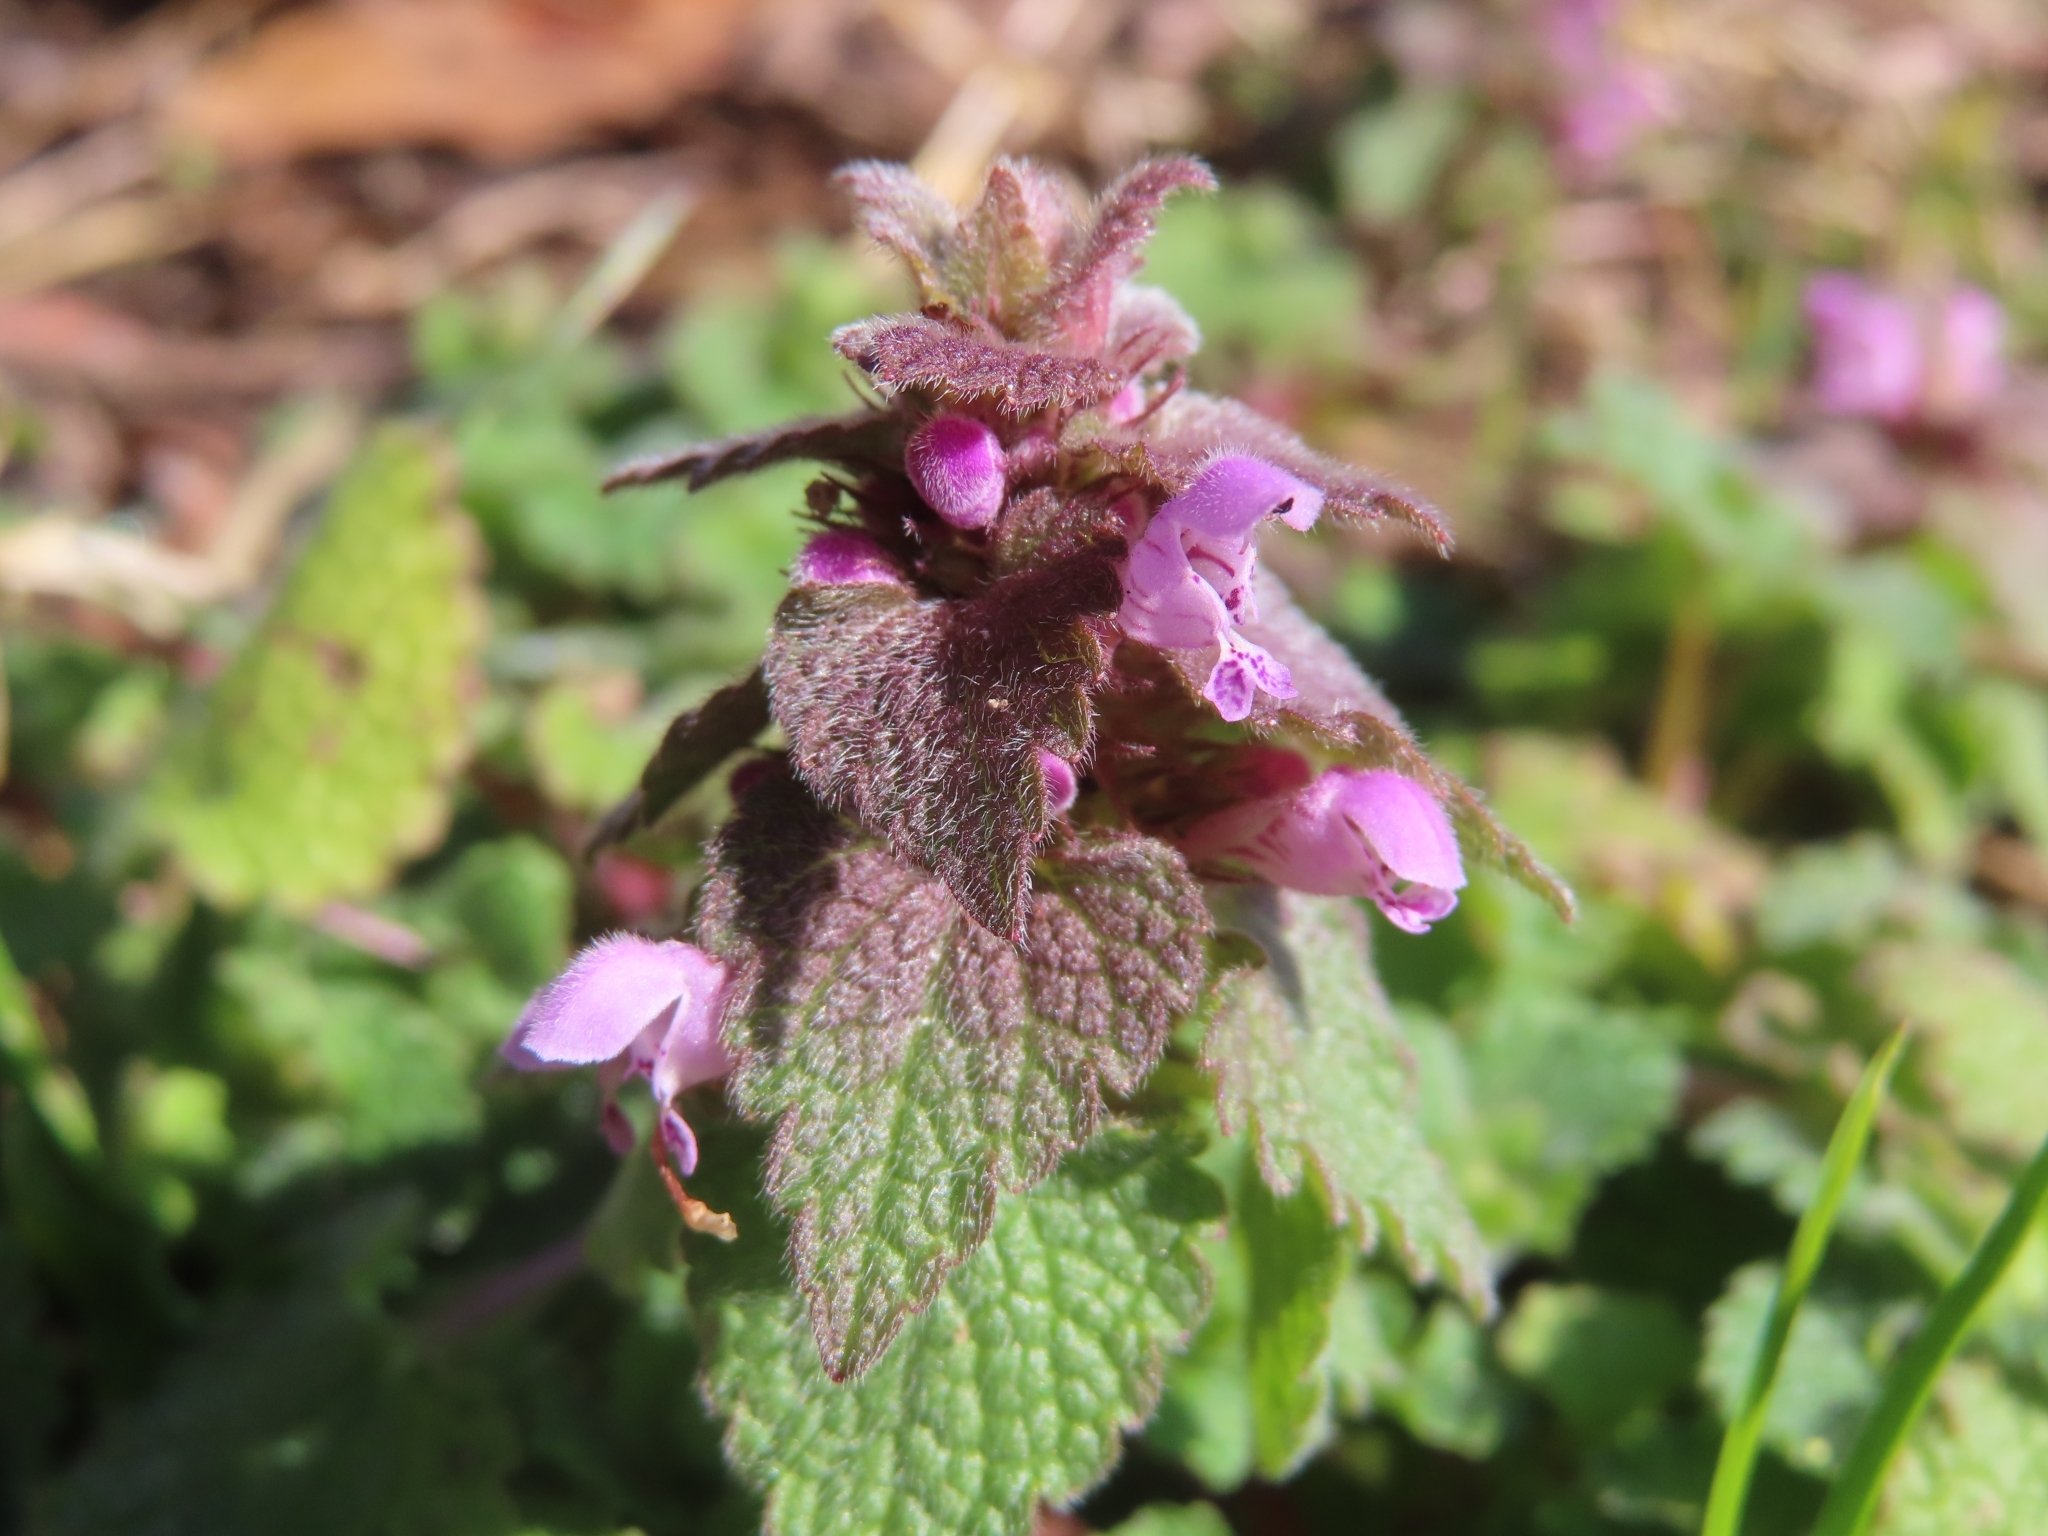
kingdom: Plantae
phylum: Tracheophyta
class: Magnoliopsida
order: Lamiales
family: Lamiaceae
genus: Lamium
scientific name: Lamium purpureum
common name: Red dead-nettle
